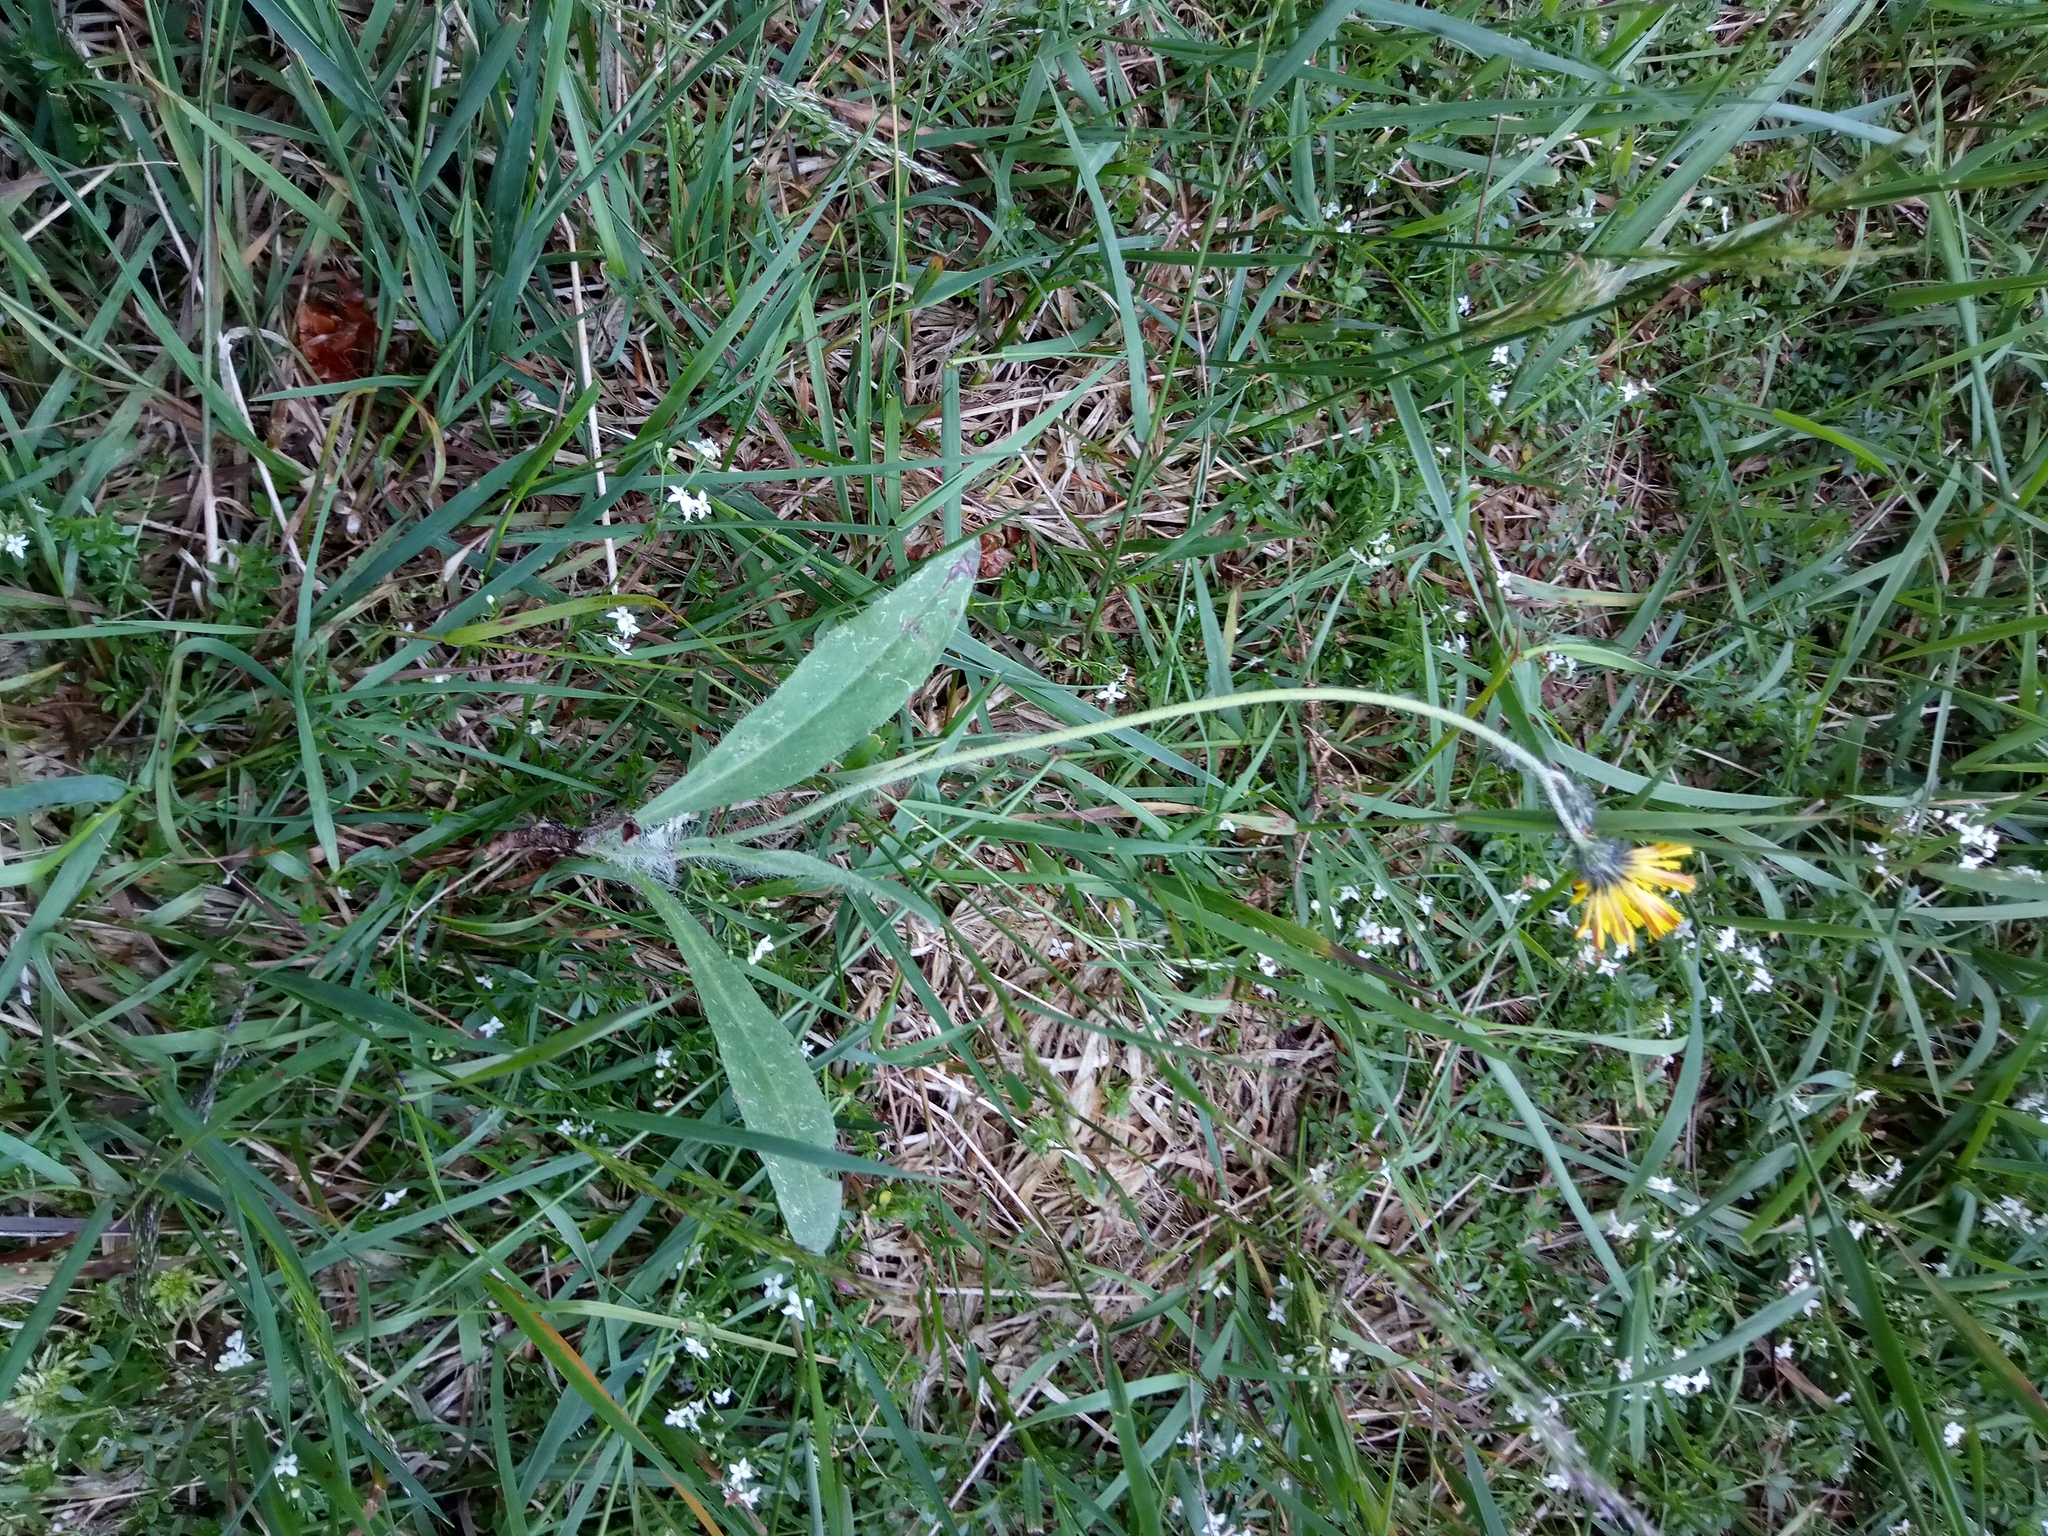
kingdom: Plantae
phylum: Tracheophyta
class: Magnoliopsida
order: Asterales
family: Asteraceae
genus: Pilosella
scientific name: Pilosella iserana
